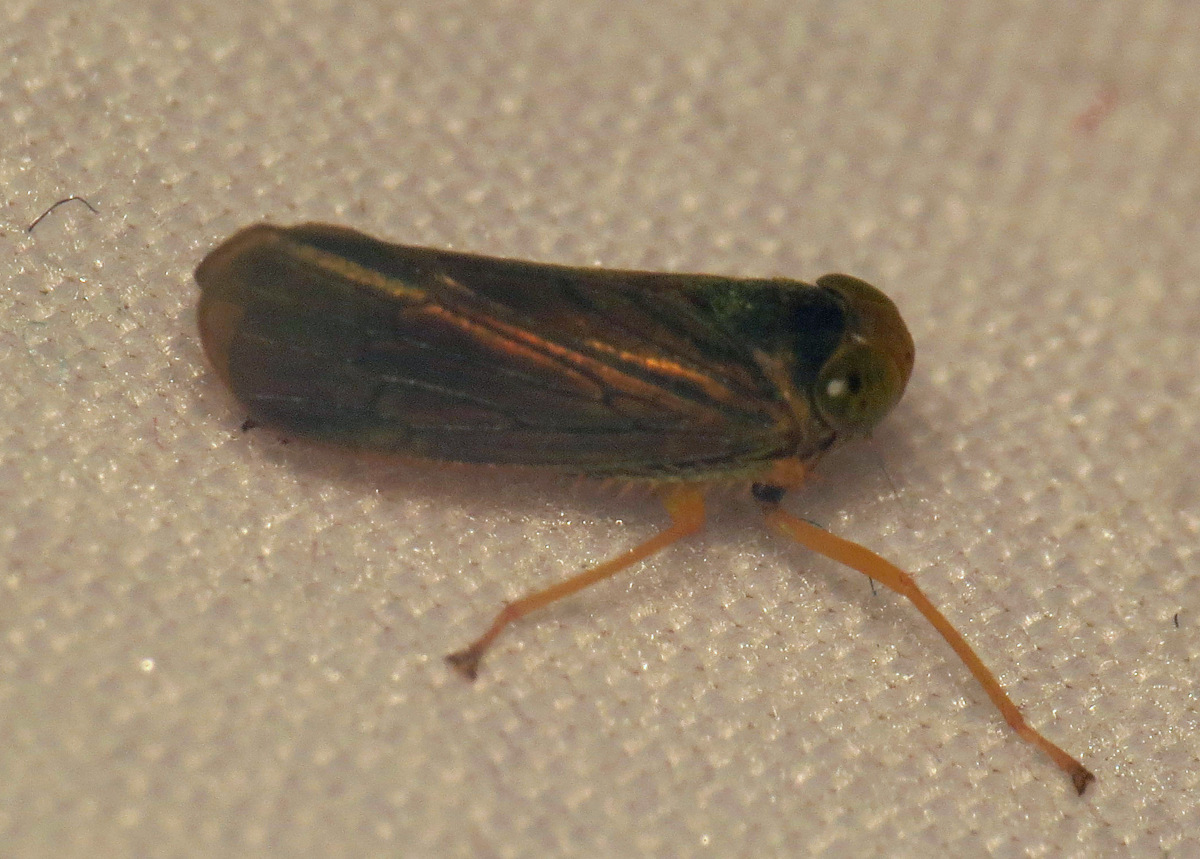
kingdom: Animalia
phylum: Arthropoda
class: Insecta
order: Hemiptera
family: Cicadellidae
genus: Jikradia
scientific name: Jikradia olitoria
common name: Coppery leafhopper
